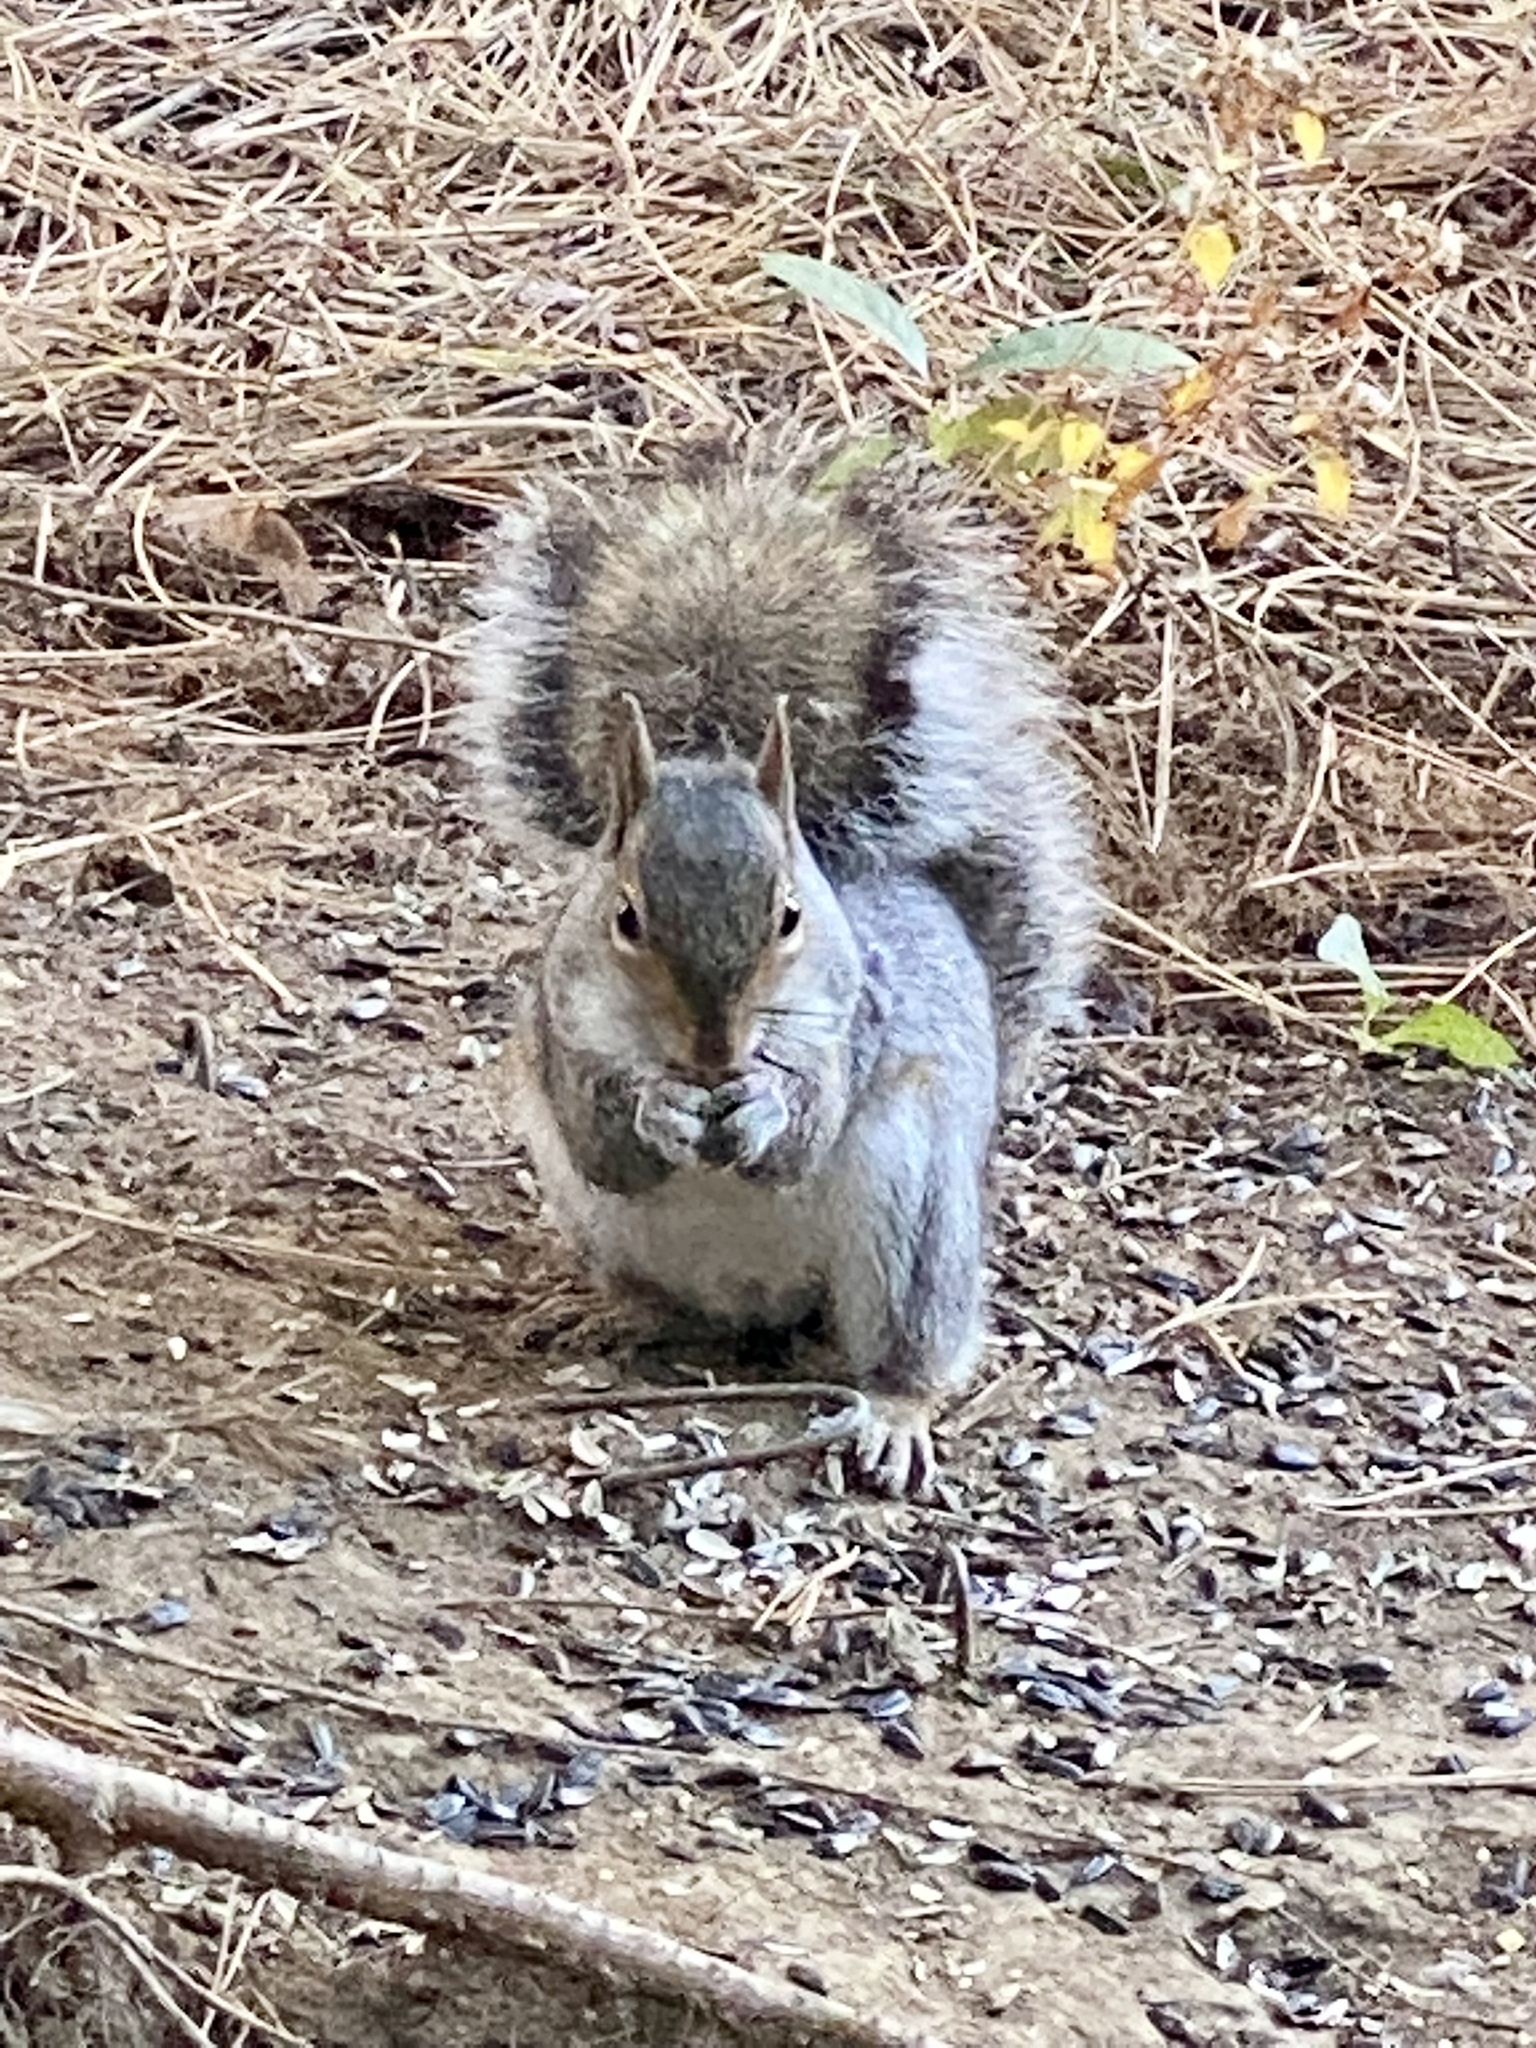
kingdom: Animalia
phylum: Chordata
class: Mammalia
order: Rodentia
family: Sciuridae
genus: Sciurus
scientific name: Sciurus carolinensis
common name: Eastern gray squirrel
